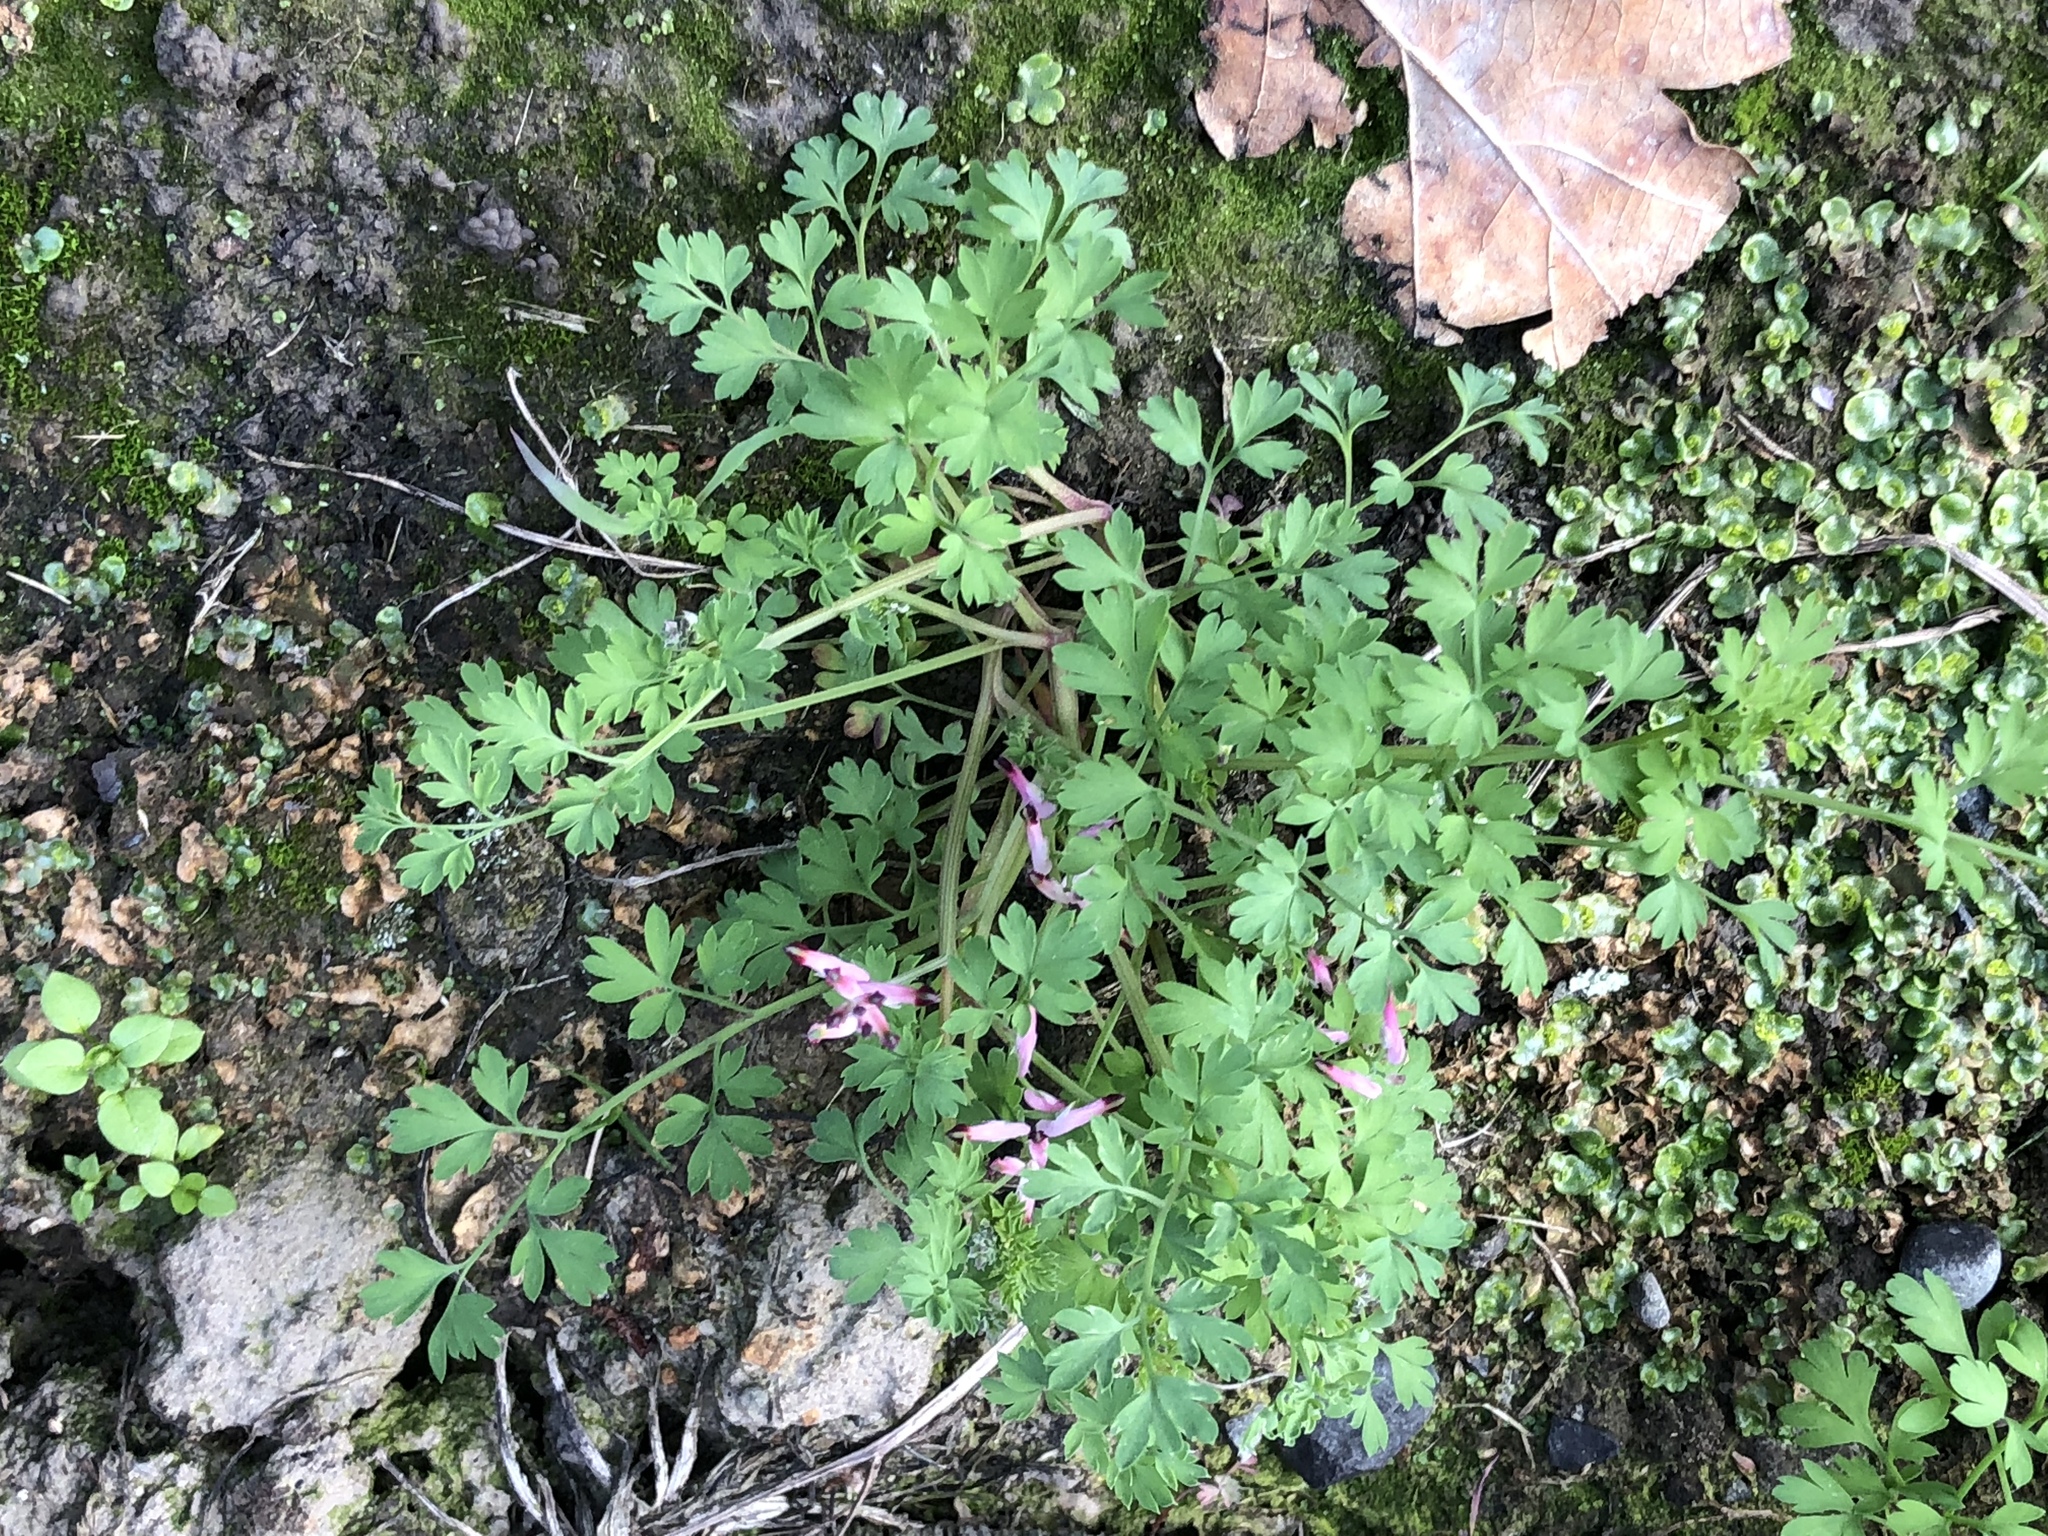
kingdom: Plantae
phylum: Tracheophyta
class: Magnoliopsida
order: Ranunculales
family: Papaveraceae
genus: Fumaria
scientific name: Fumaria muralis
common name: Common ramping-fumitory
